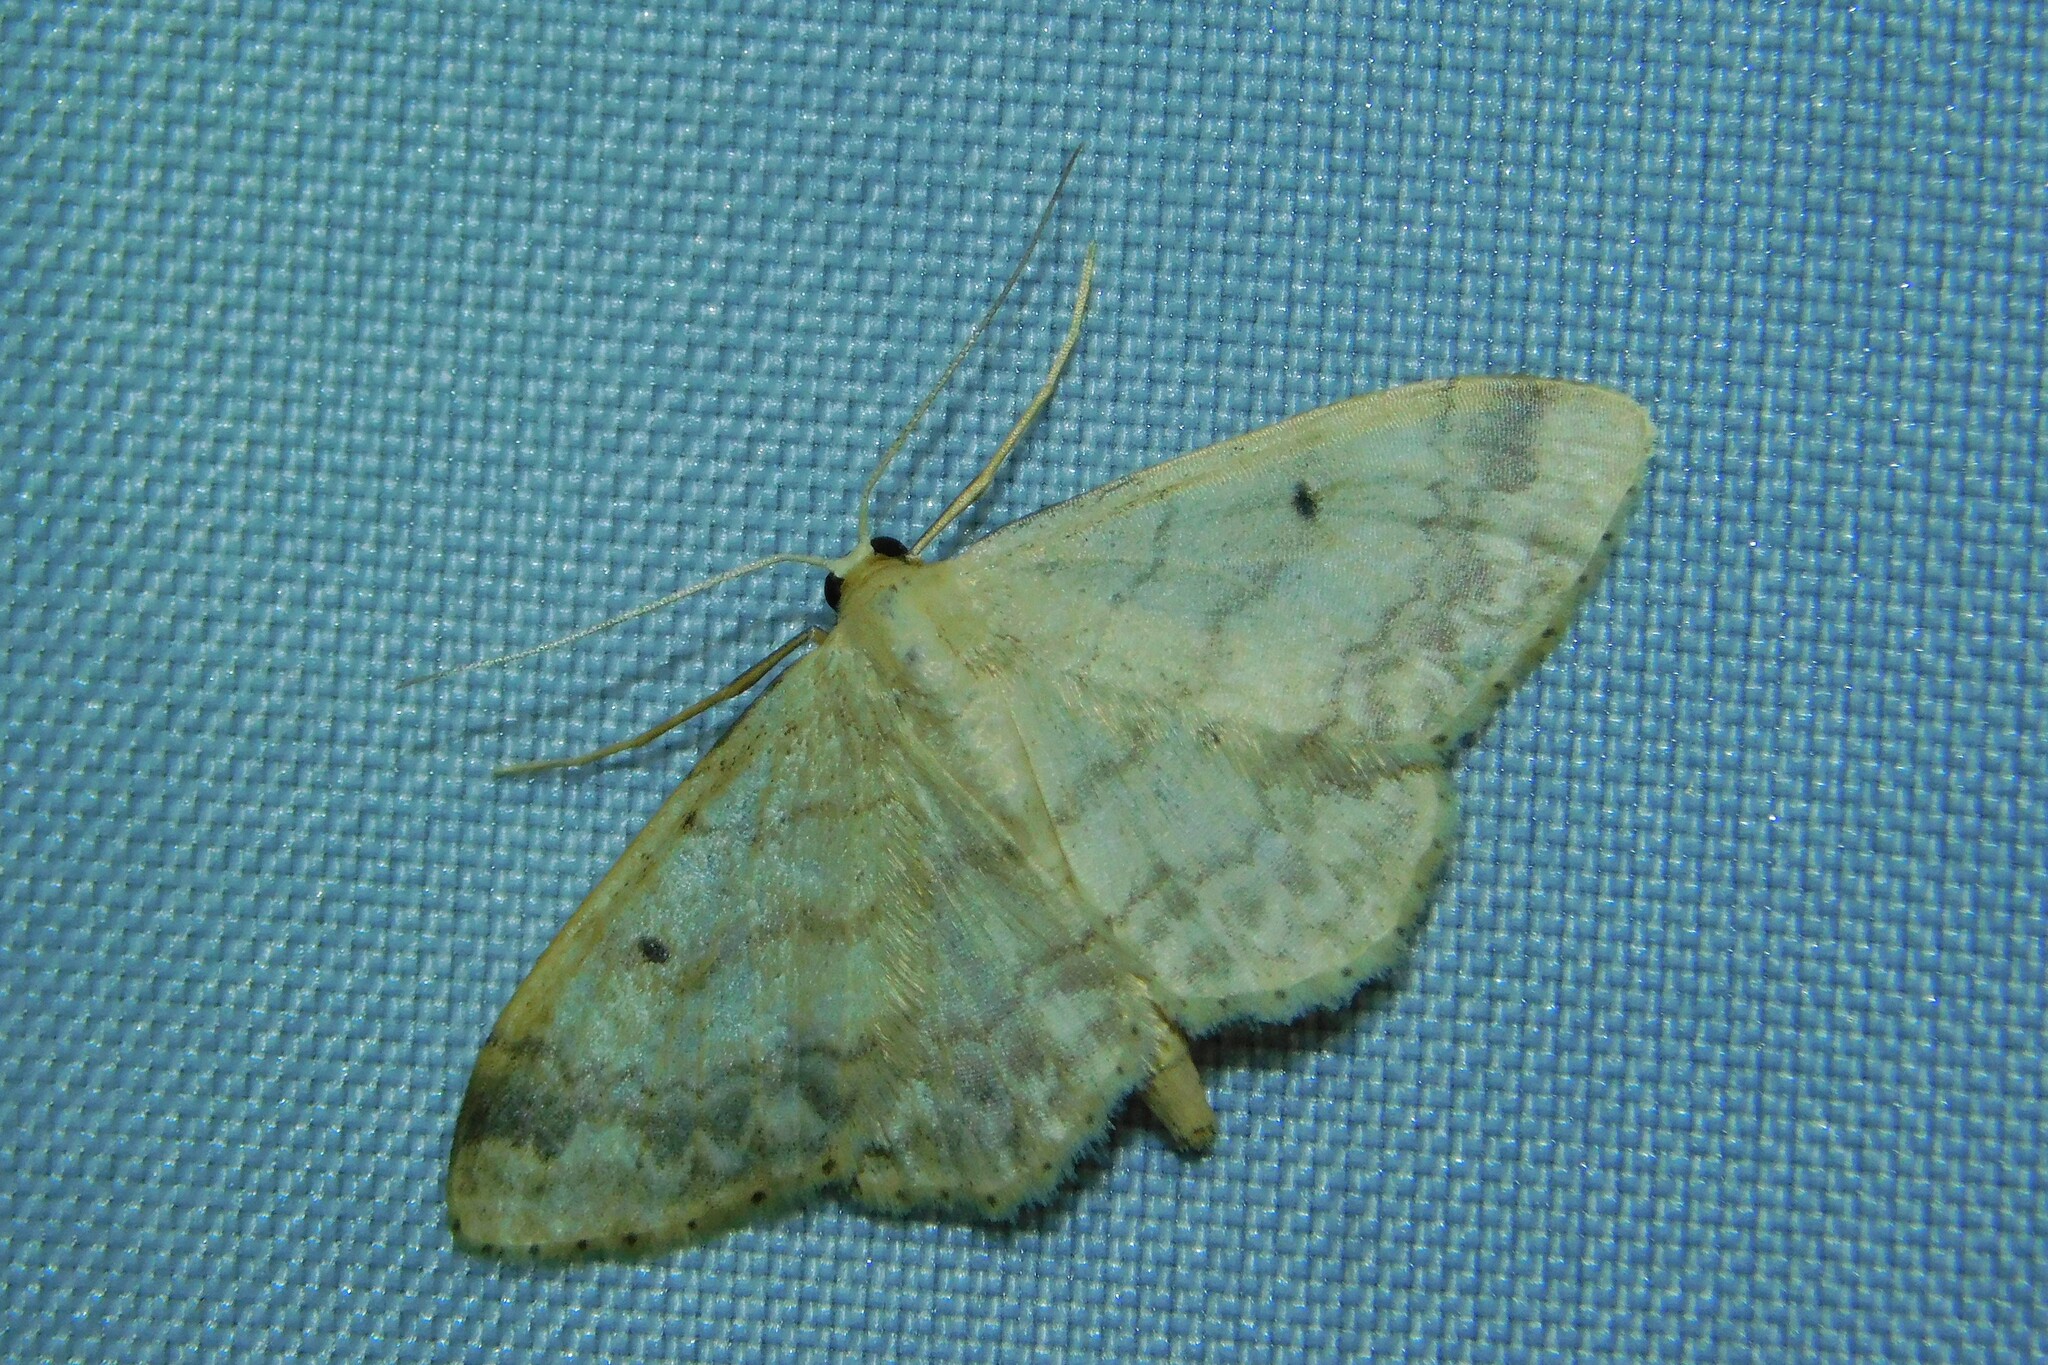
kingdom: Animalia
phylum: Arthropoda
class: Insecta
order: Lepidoptera
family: Geometridae
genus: Idaea
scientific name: Idaea biselata
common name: Small fan-footed wave
